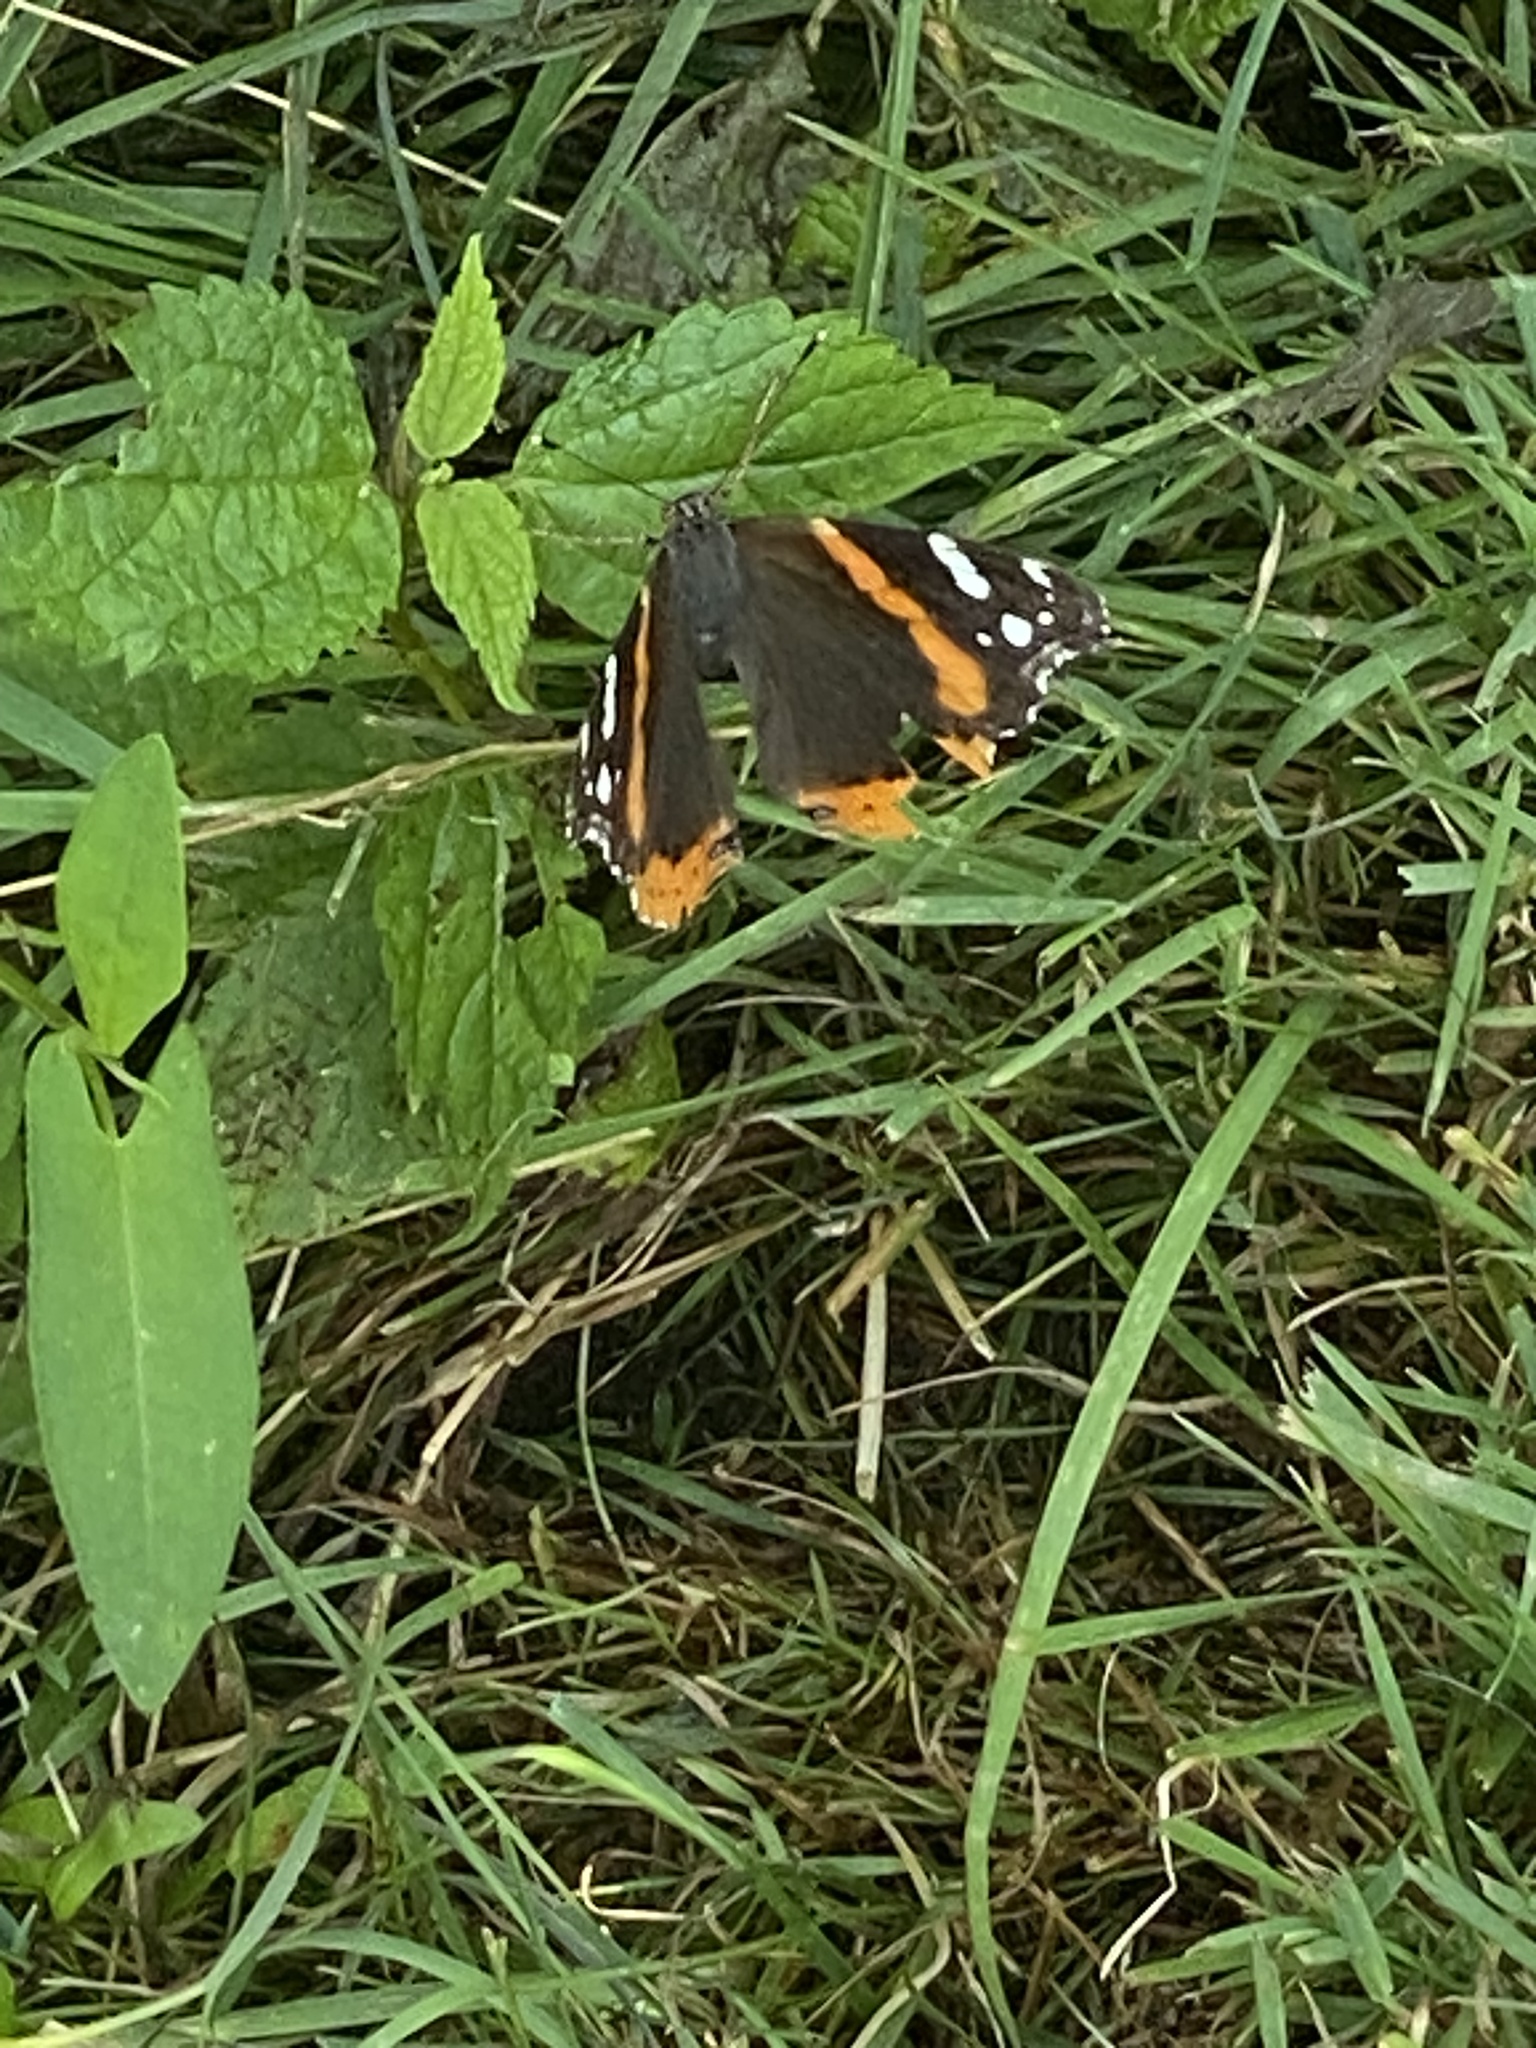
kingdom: Animalia
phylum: Arthropoda
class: Insecta
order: Lepidoptera
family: Nymphalidae
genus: Vanessa
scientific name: Vanessa atalanta
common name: Red admiral
